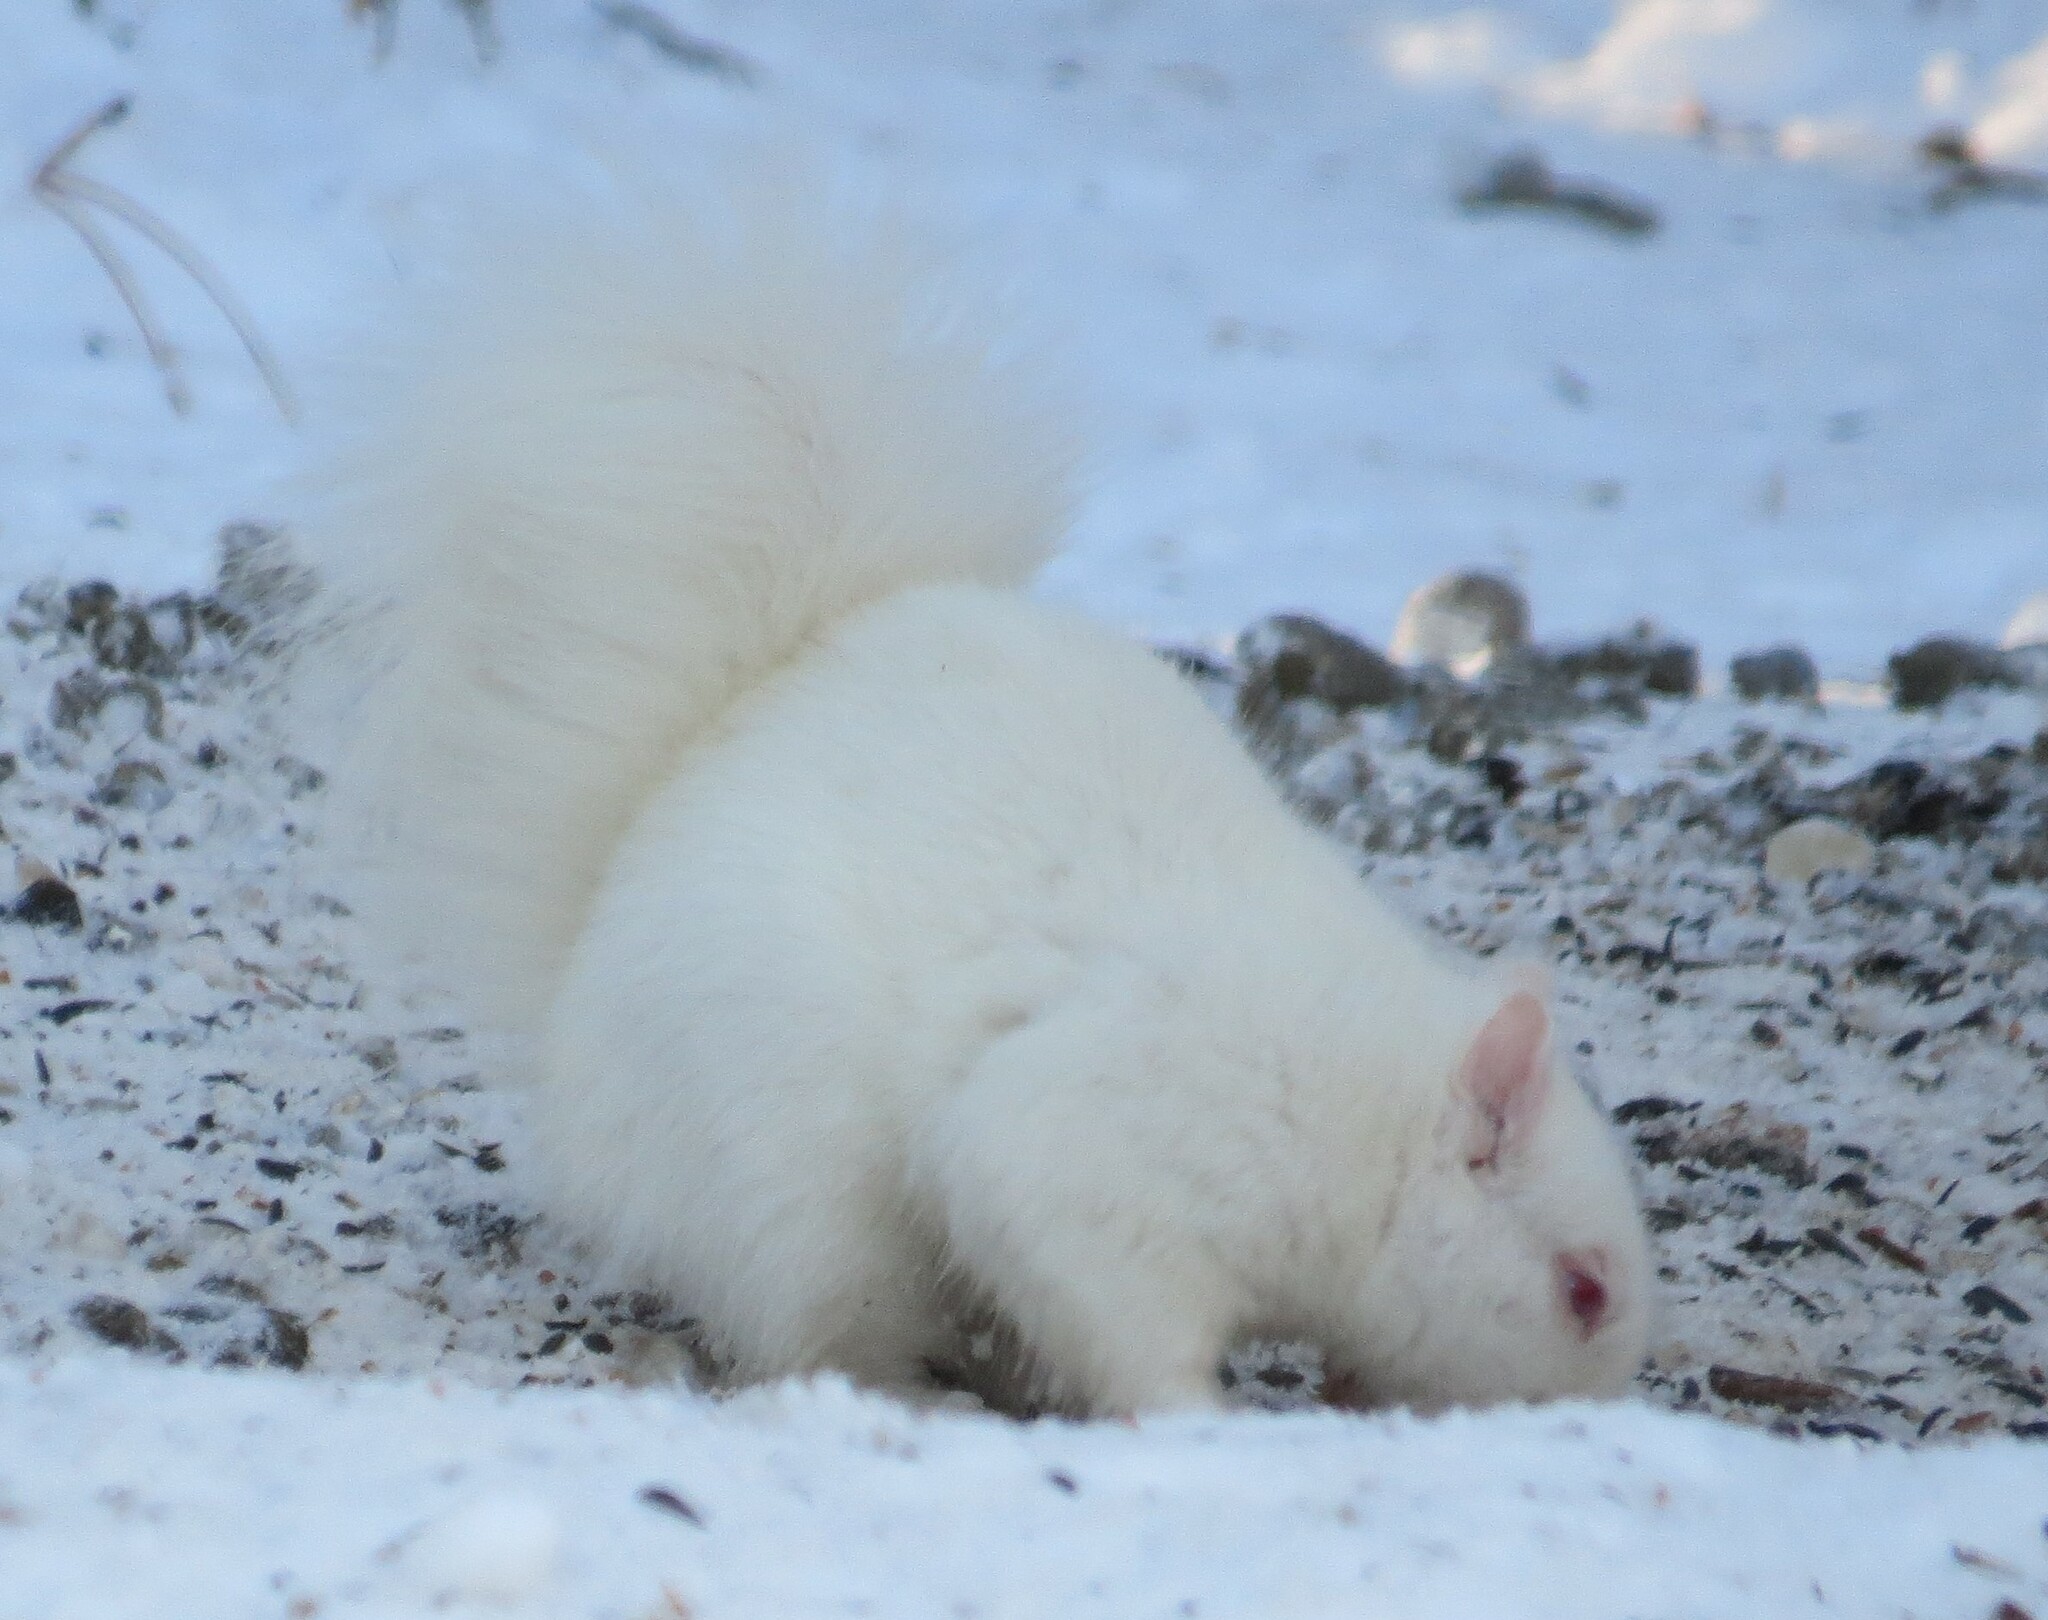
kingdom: Animalia
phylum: Chordata
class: Mammalia
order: Rodentia
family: Sciuridae
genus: Sciurus
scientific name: Sciurus carolinensis
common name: Eastern gray squirrel
